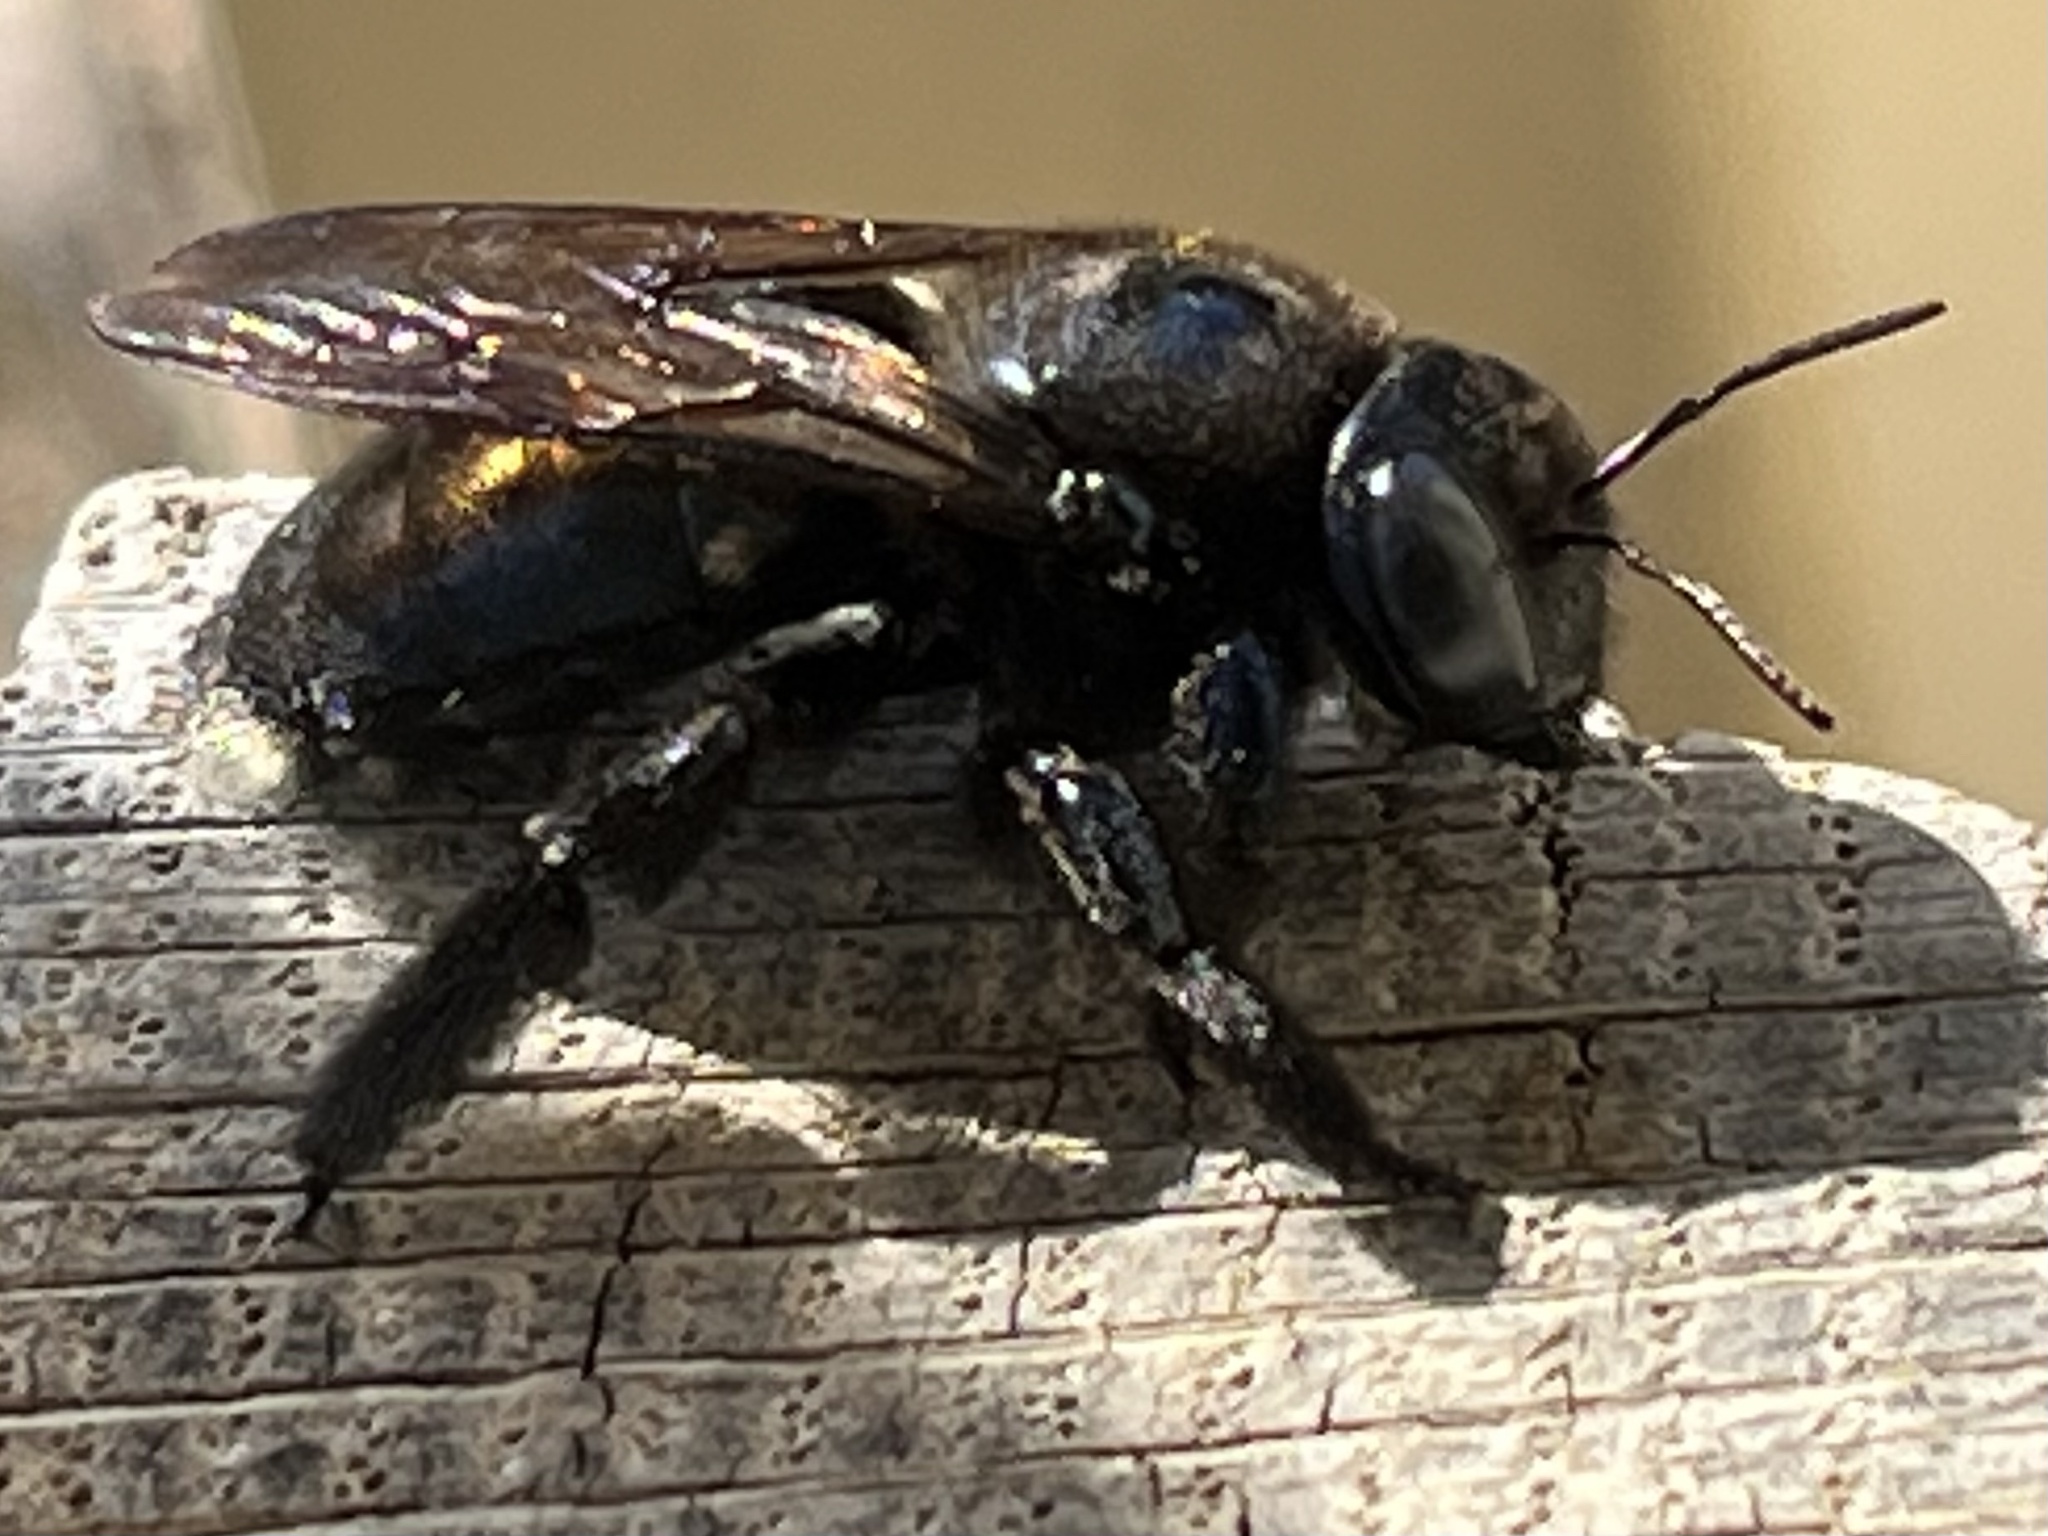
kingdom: Animalia
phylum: Arthropoda
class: Insecta
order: Hymenoptera
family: Apidae
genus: Xylocopa
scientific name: Xylocopa micans
